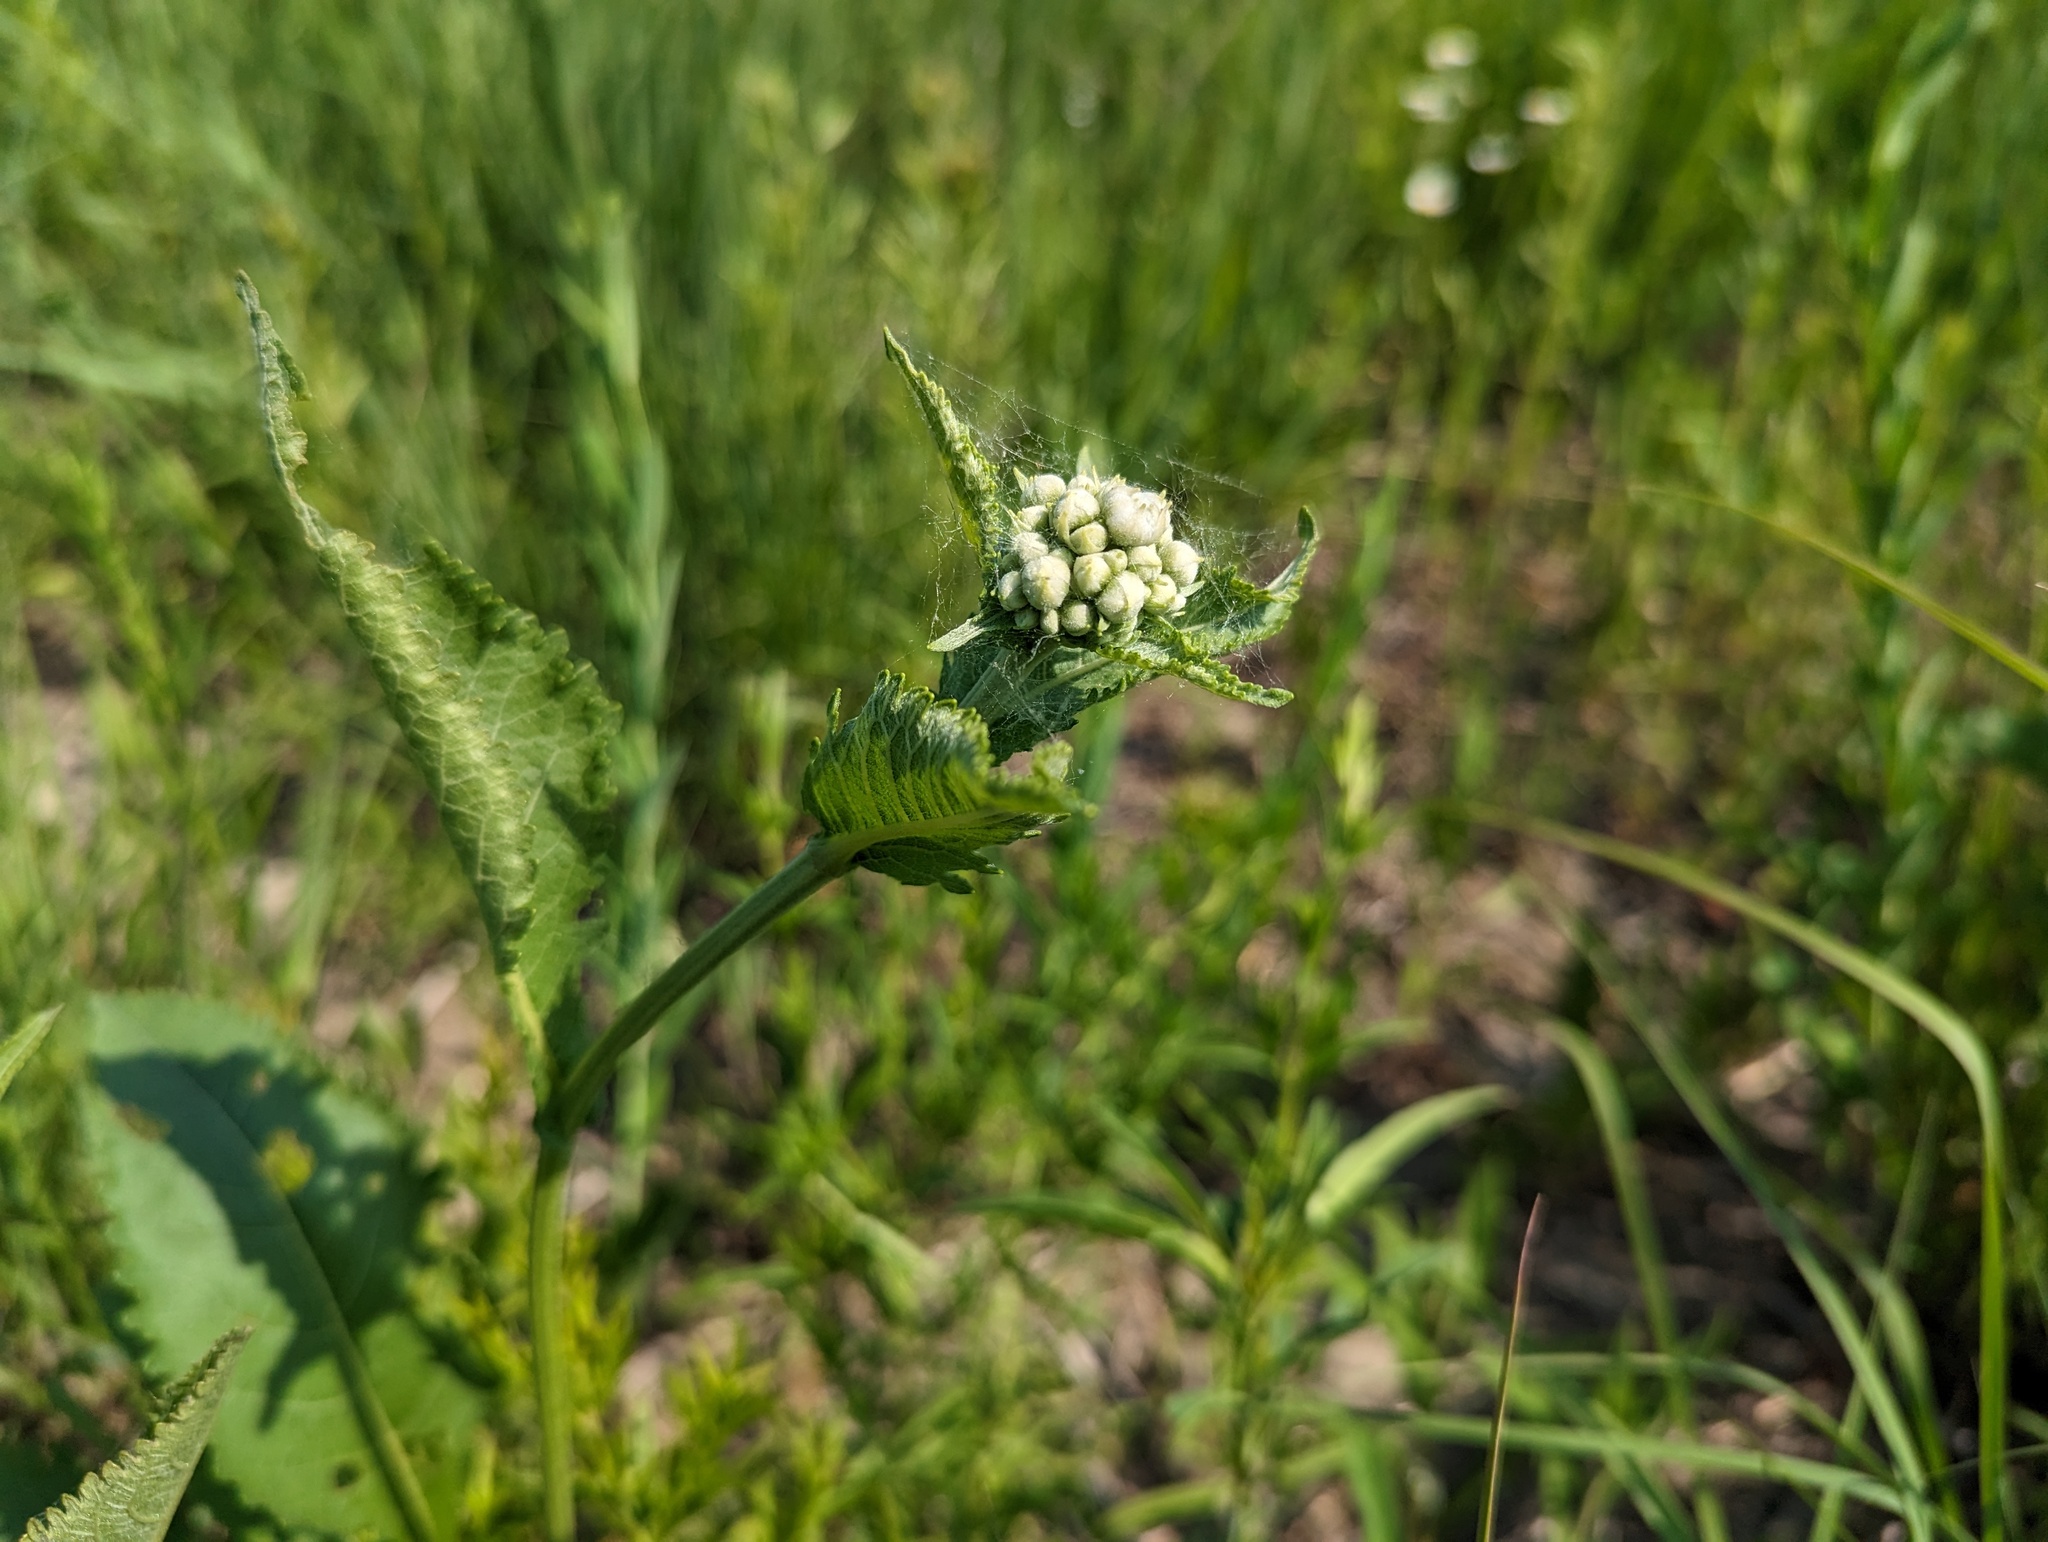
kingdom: Plantae
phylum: Tracheophyta
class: Magnoliopsida
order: Asterales
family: Asteraceae
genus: Parthenium
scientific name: Parthenium integrifolium
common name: American feverfew
